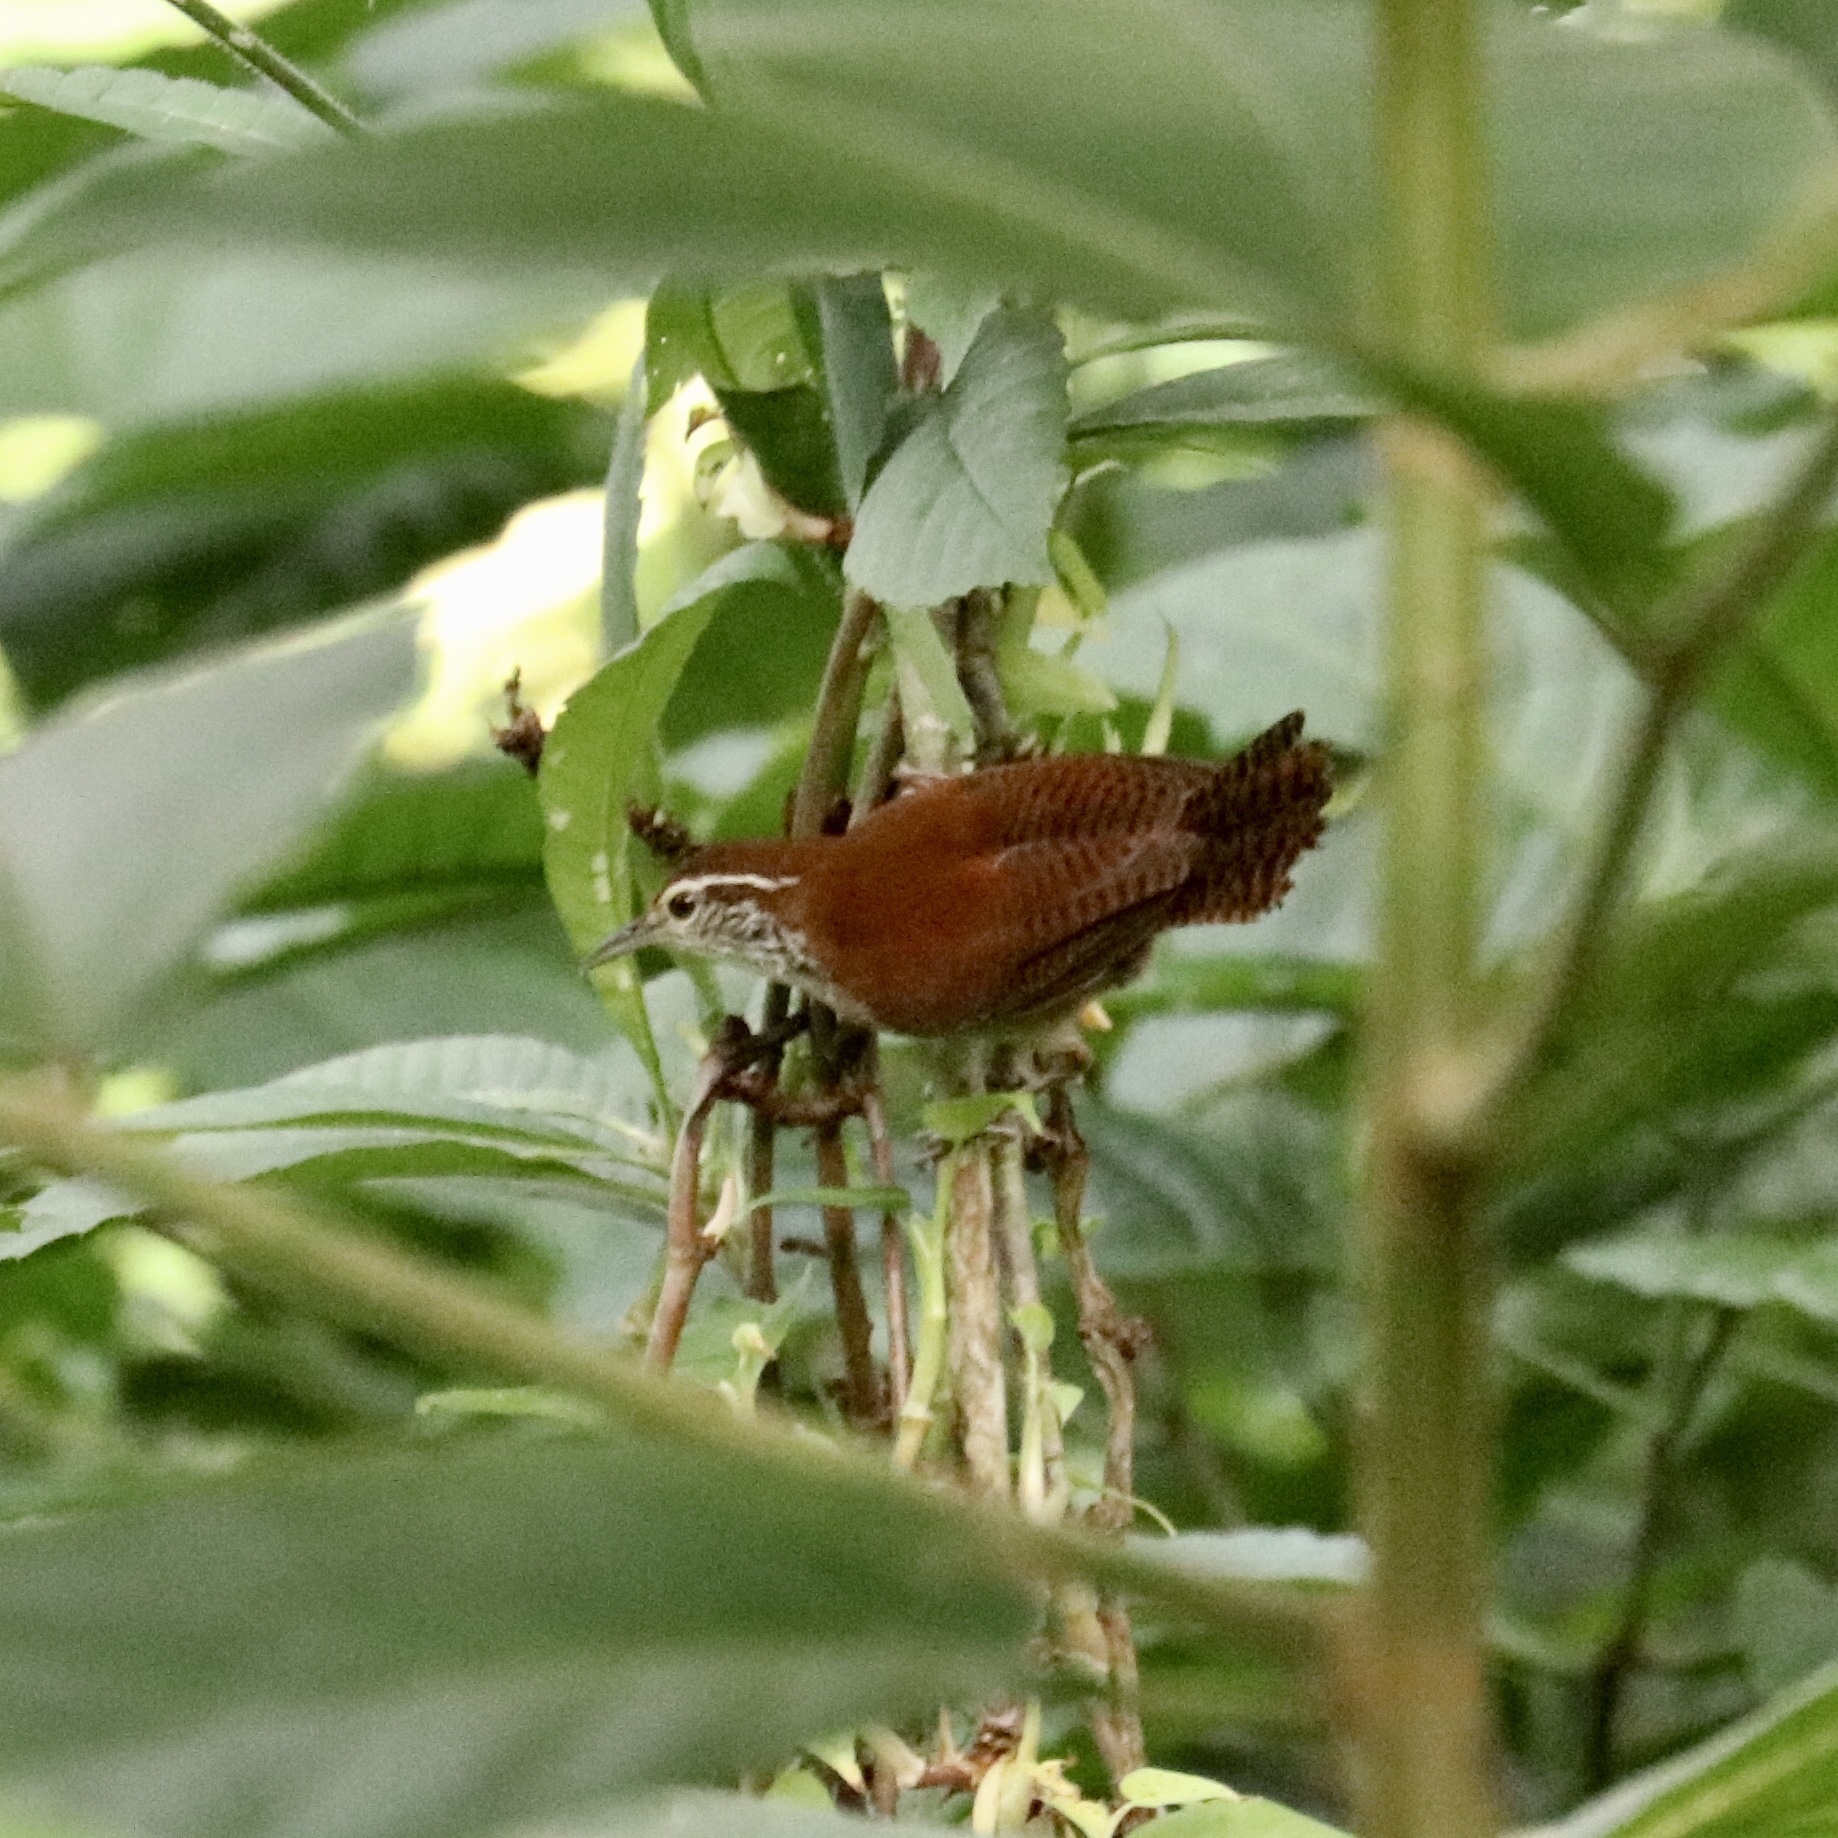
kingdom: Animalia
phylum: Chordata
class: Aves
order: Passeriformes
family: Troglodytidae
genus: Thryophilus
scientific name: Thryophilus rufalbus
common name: Rufous-and-white wren
